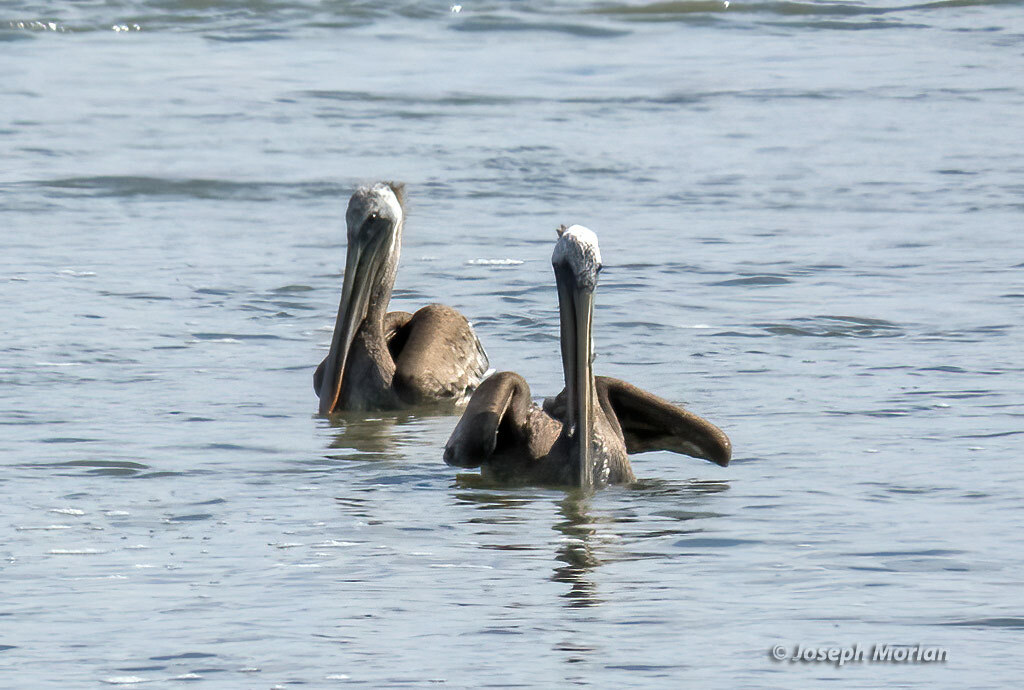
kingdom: Animalia
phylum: Chordata
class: Aves
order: Pelecaniformes
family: Pelecanidae
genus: Pelecanus
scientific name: Pelecanus occidentalis
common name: Brown pelican
